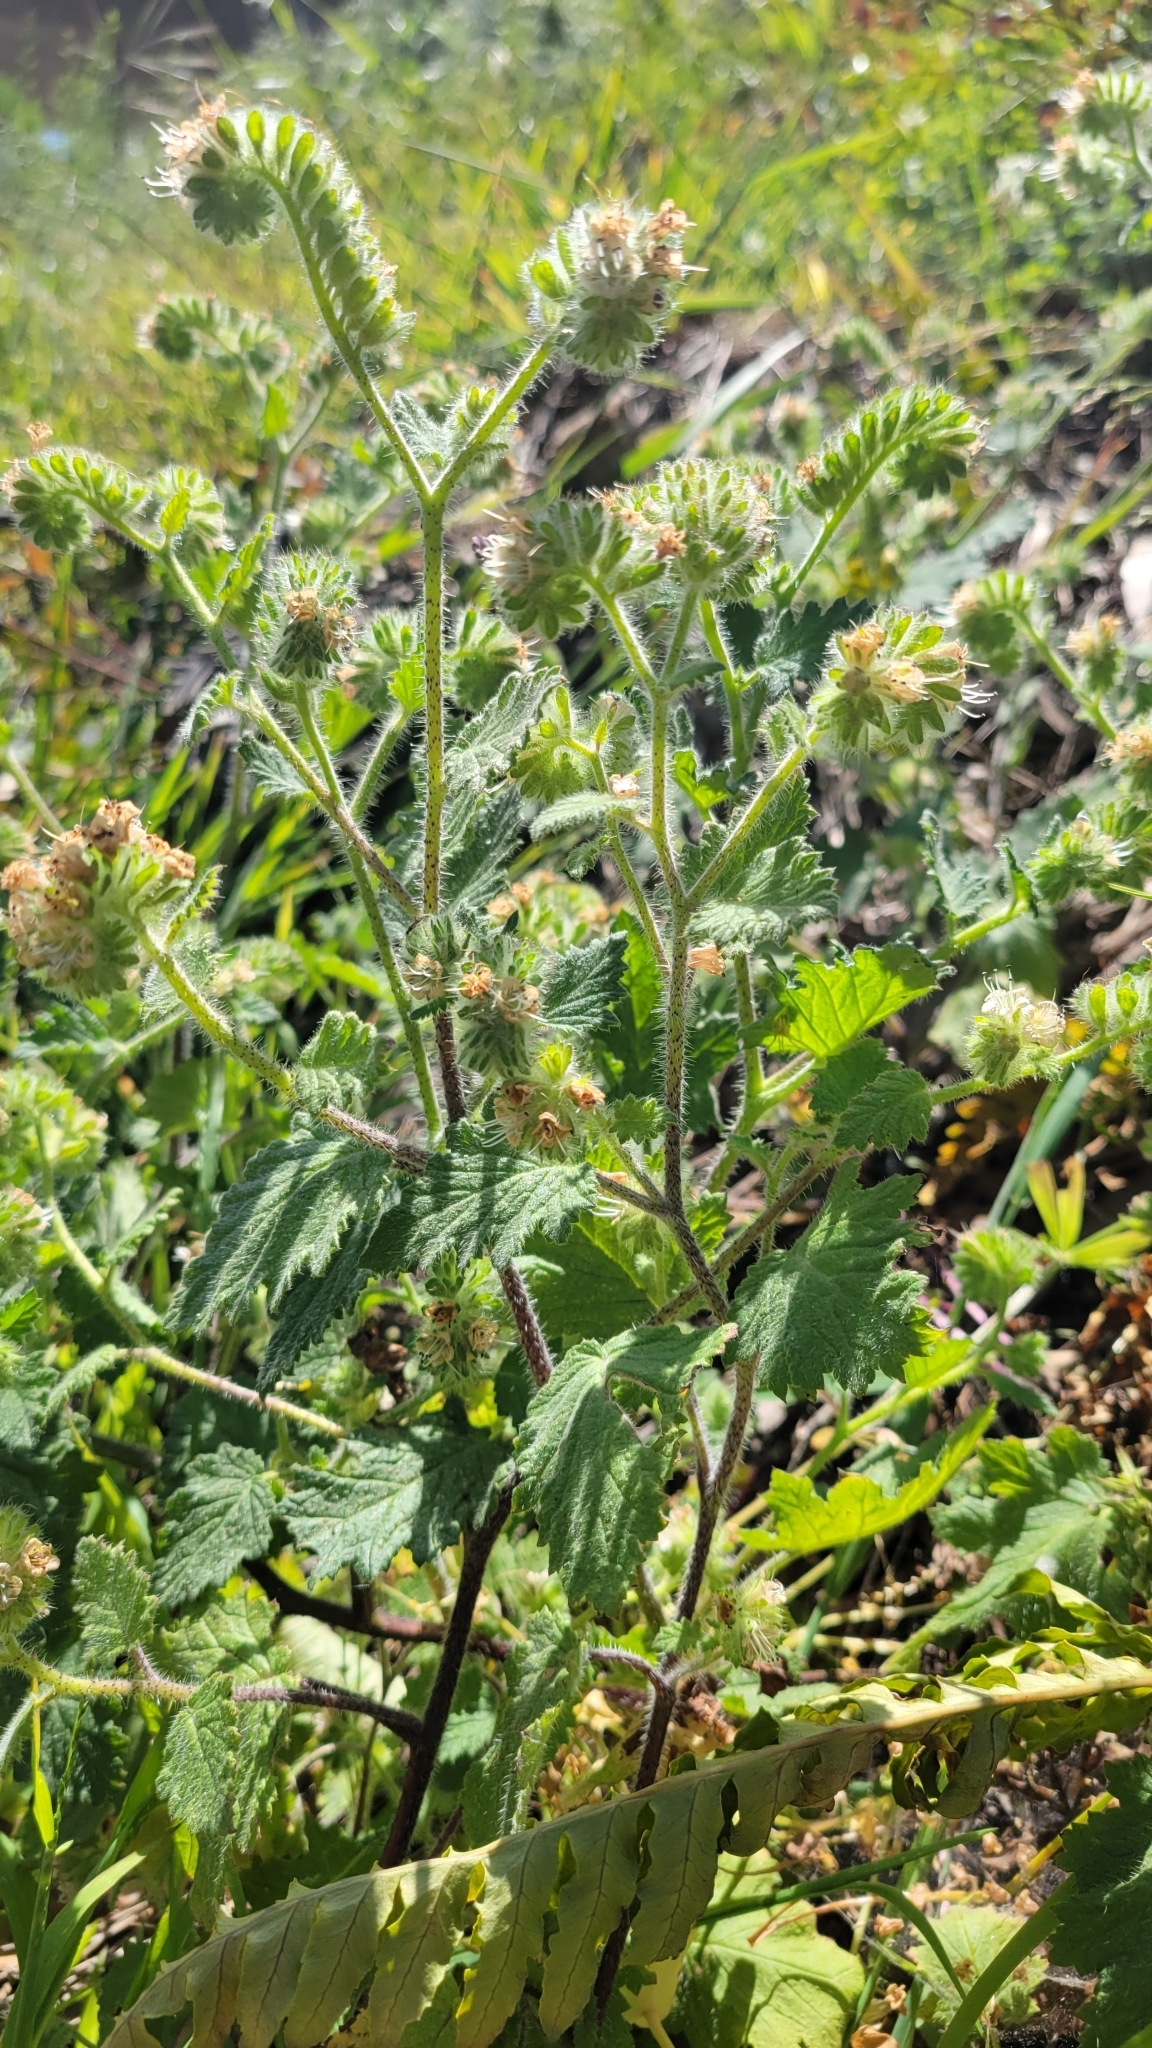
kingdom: Plantae
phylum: Tracheophyta
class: Magnoliopsida
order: Boraginales
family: Hydrophyllaceae
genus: Phacelia
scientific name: Phacelia malvifolia
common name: Mallow-leaf phacelia
